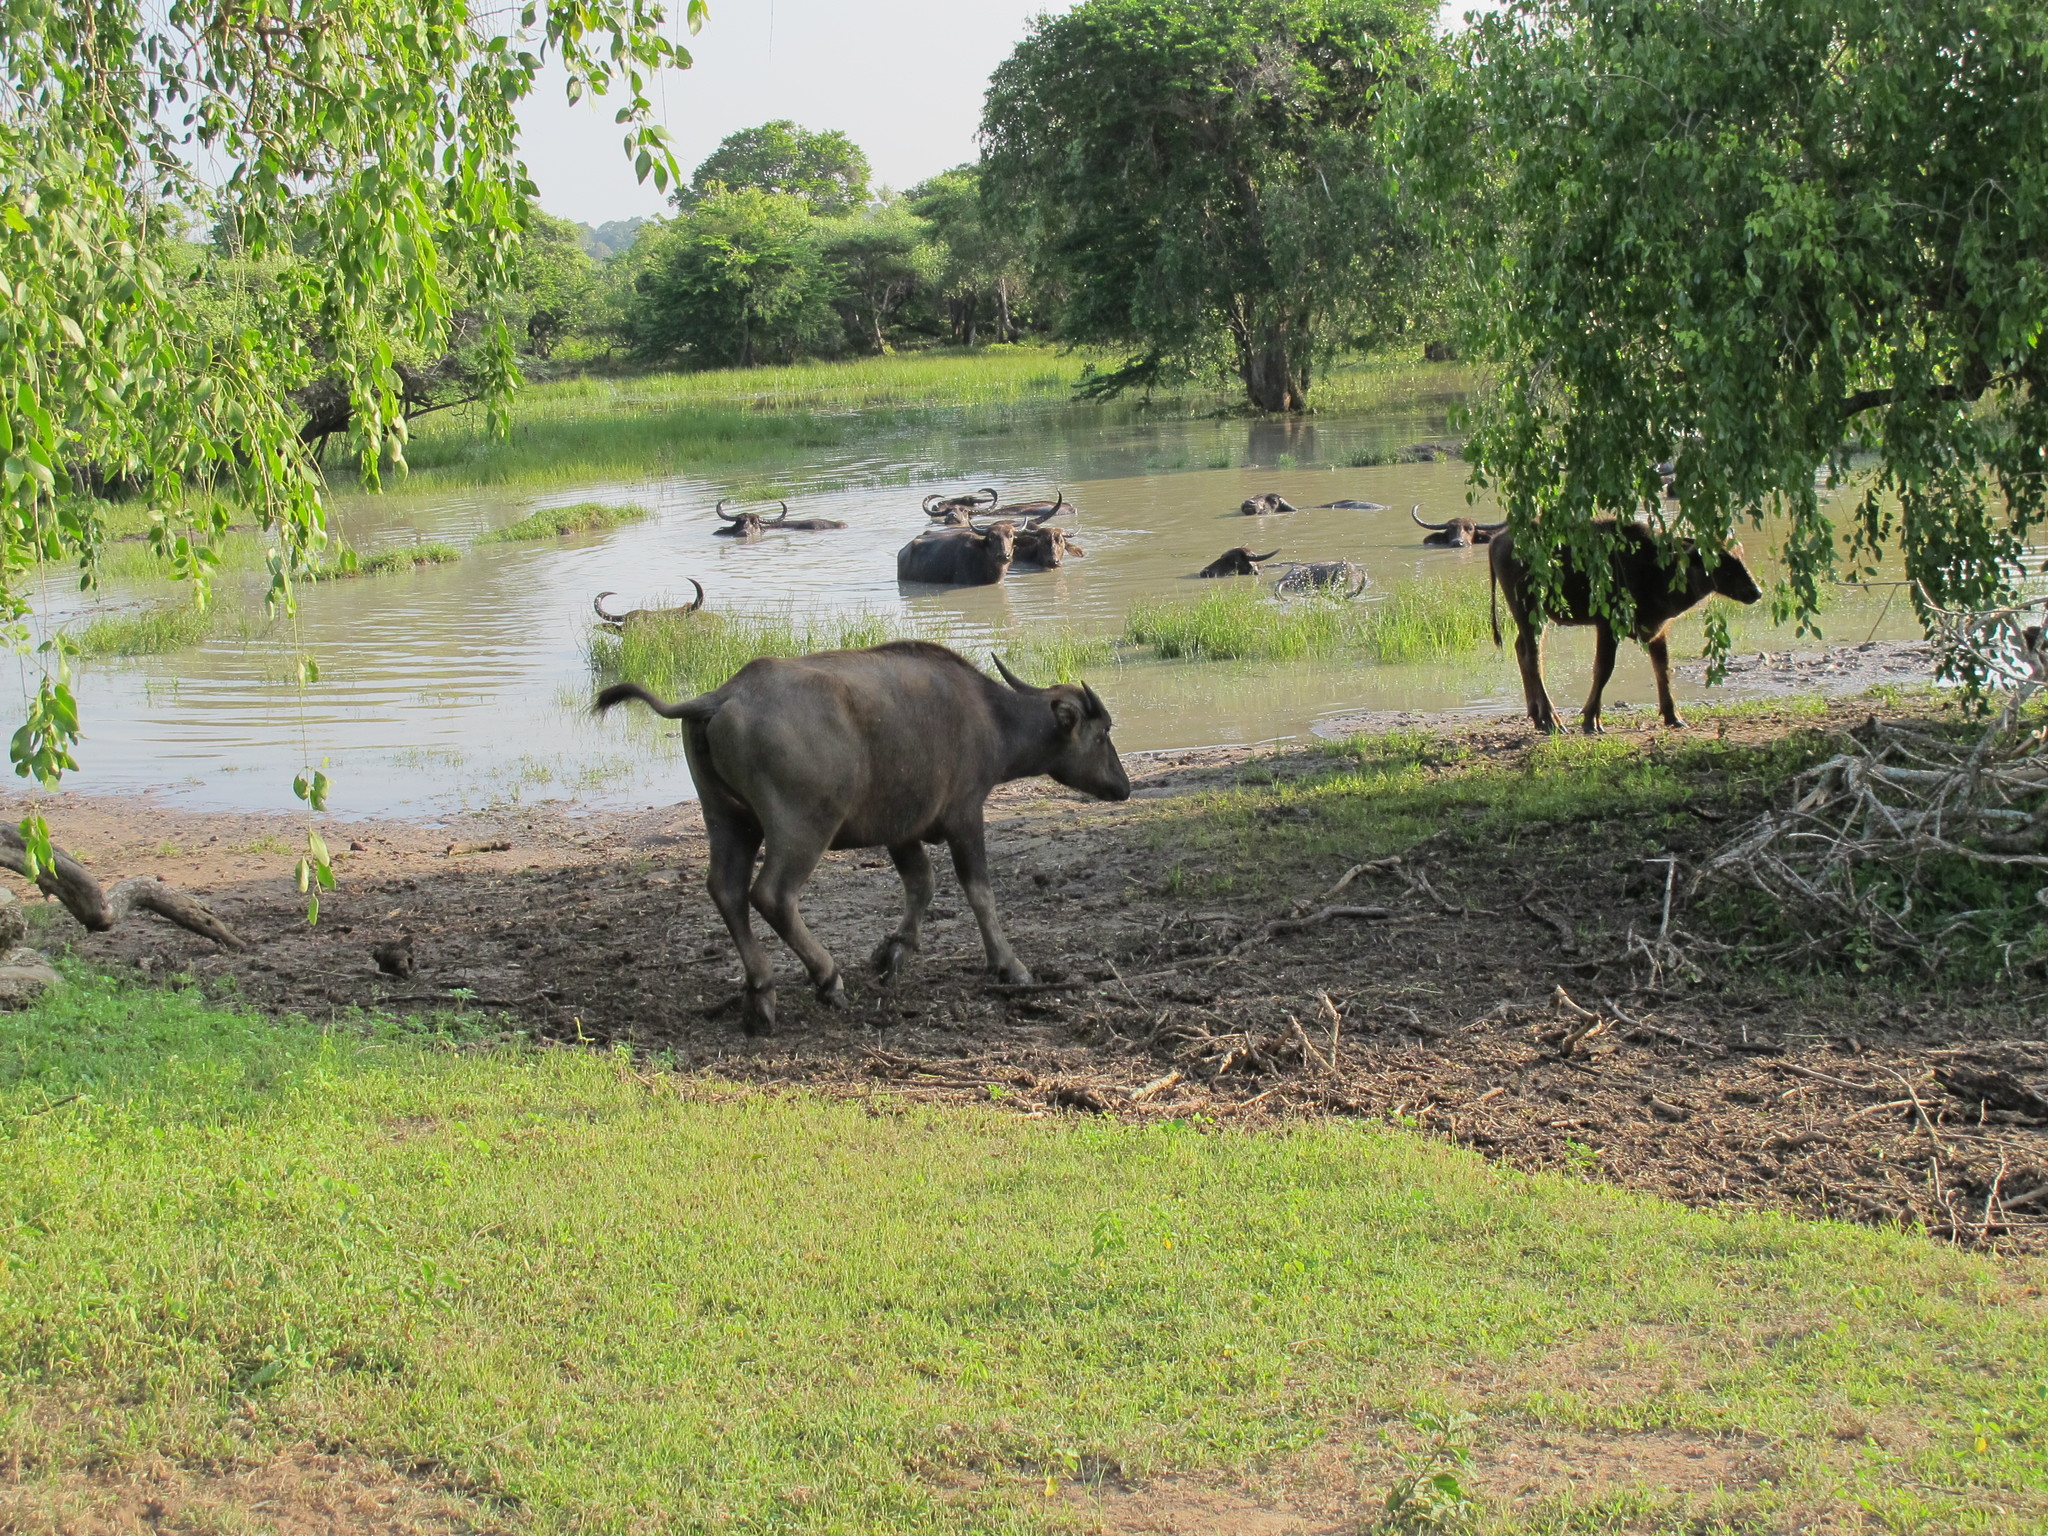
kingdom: Animalia
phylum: Chordata
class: Mammalia
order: Artiodactyla
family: Bovidae
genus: Bubalus
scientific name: Bubalus bubalis
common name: Water buffalo
